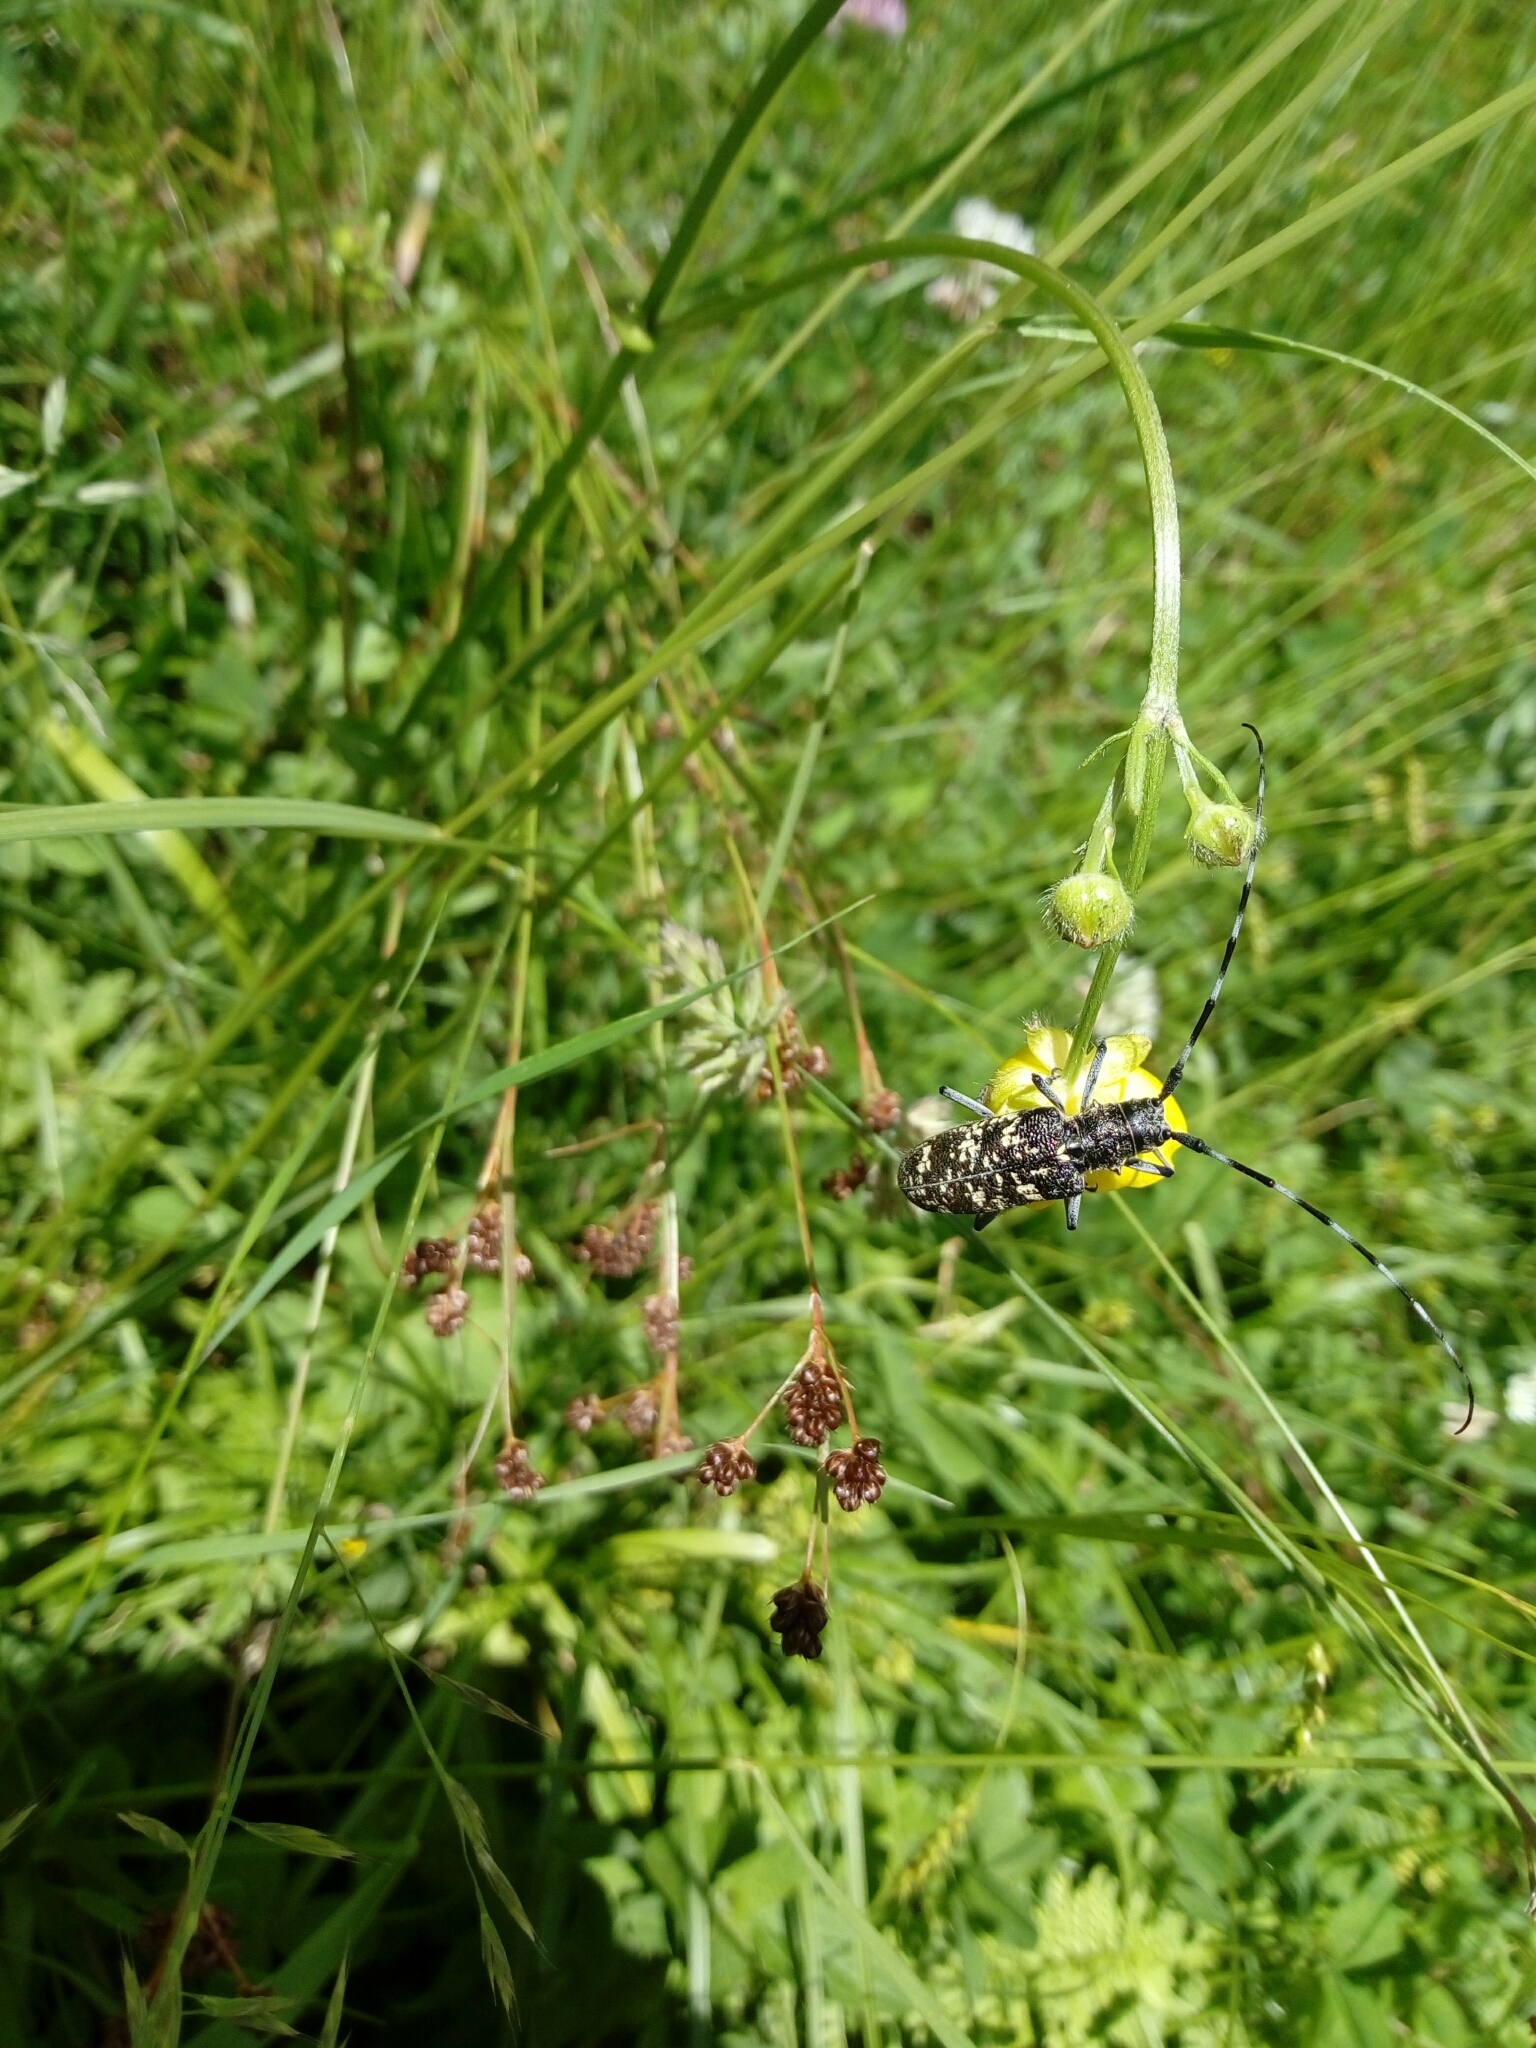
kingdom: Animalia
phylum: Arthropoda
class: Insecta
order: Coleoptera
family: Cerambycidae
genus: Monochamus
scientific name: Monochamus sutor
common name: Pine sawyer
